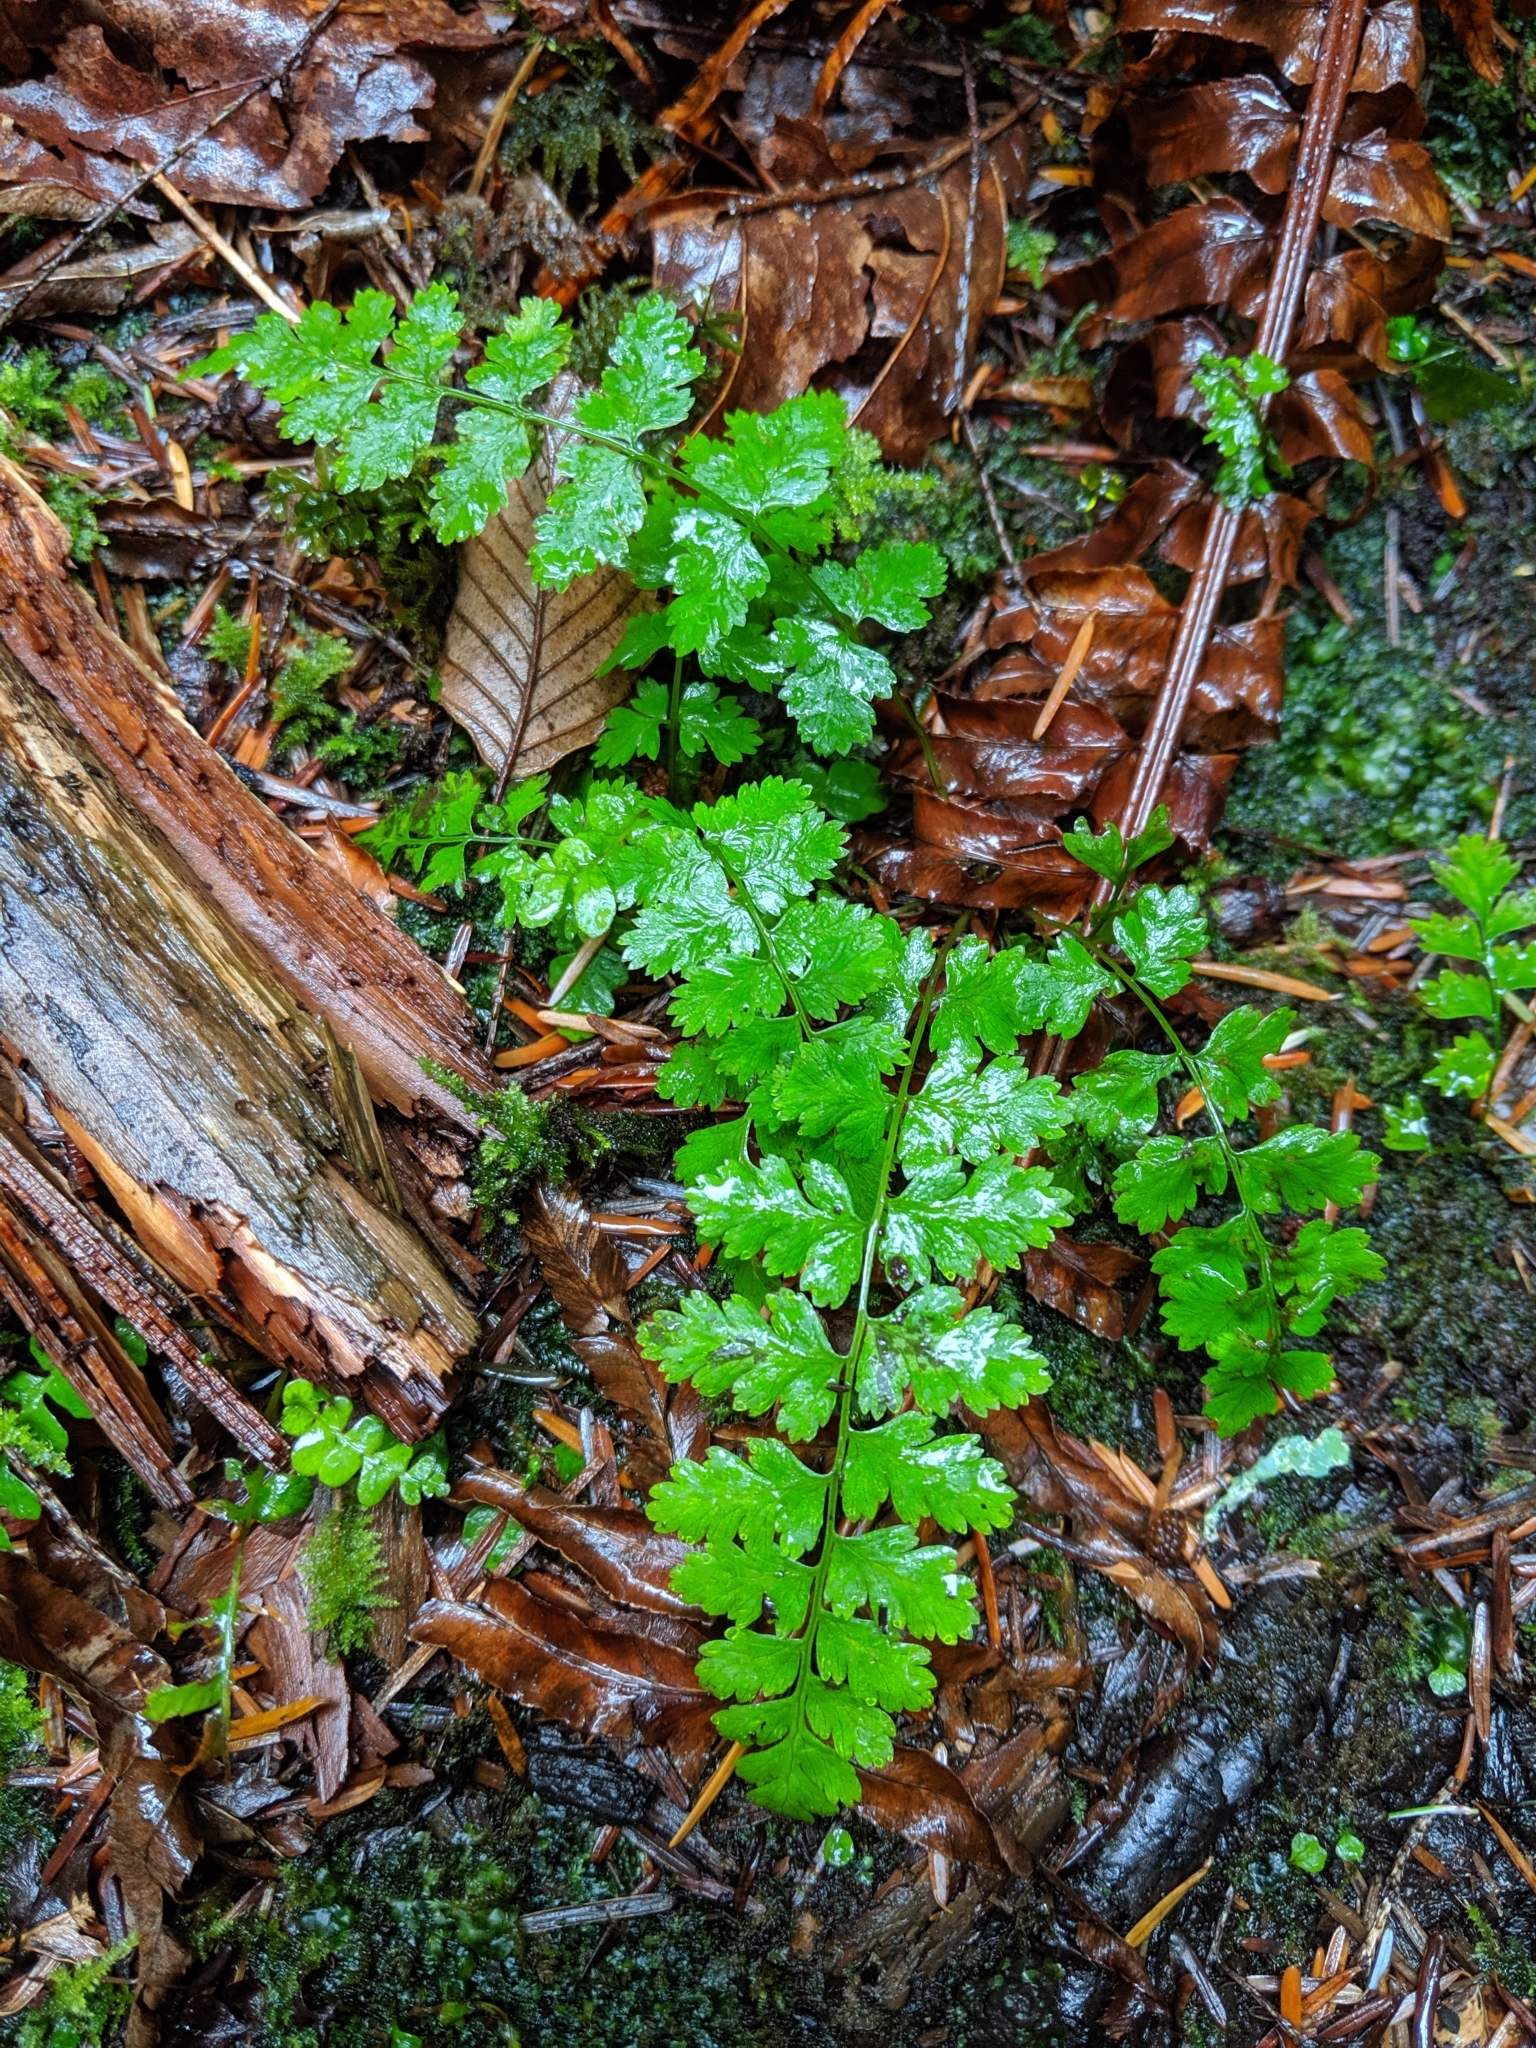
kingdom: Plantae
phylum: Tracheophyta
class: Polypodiopsida
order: Polypodiales
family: Athyriaceae
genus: Athyrium
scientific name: Athyrium filix-femina
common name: Lady fern
